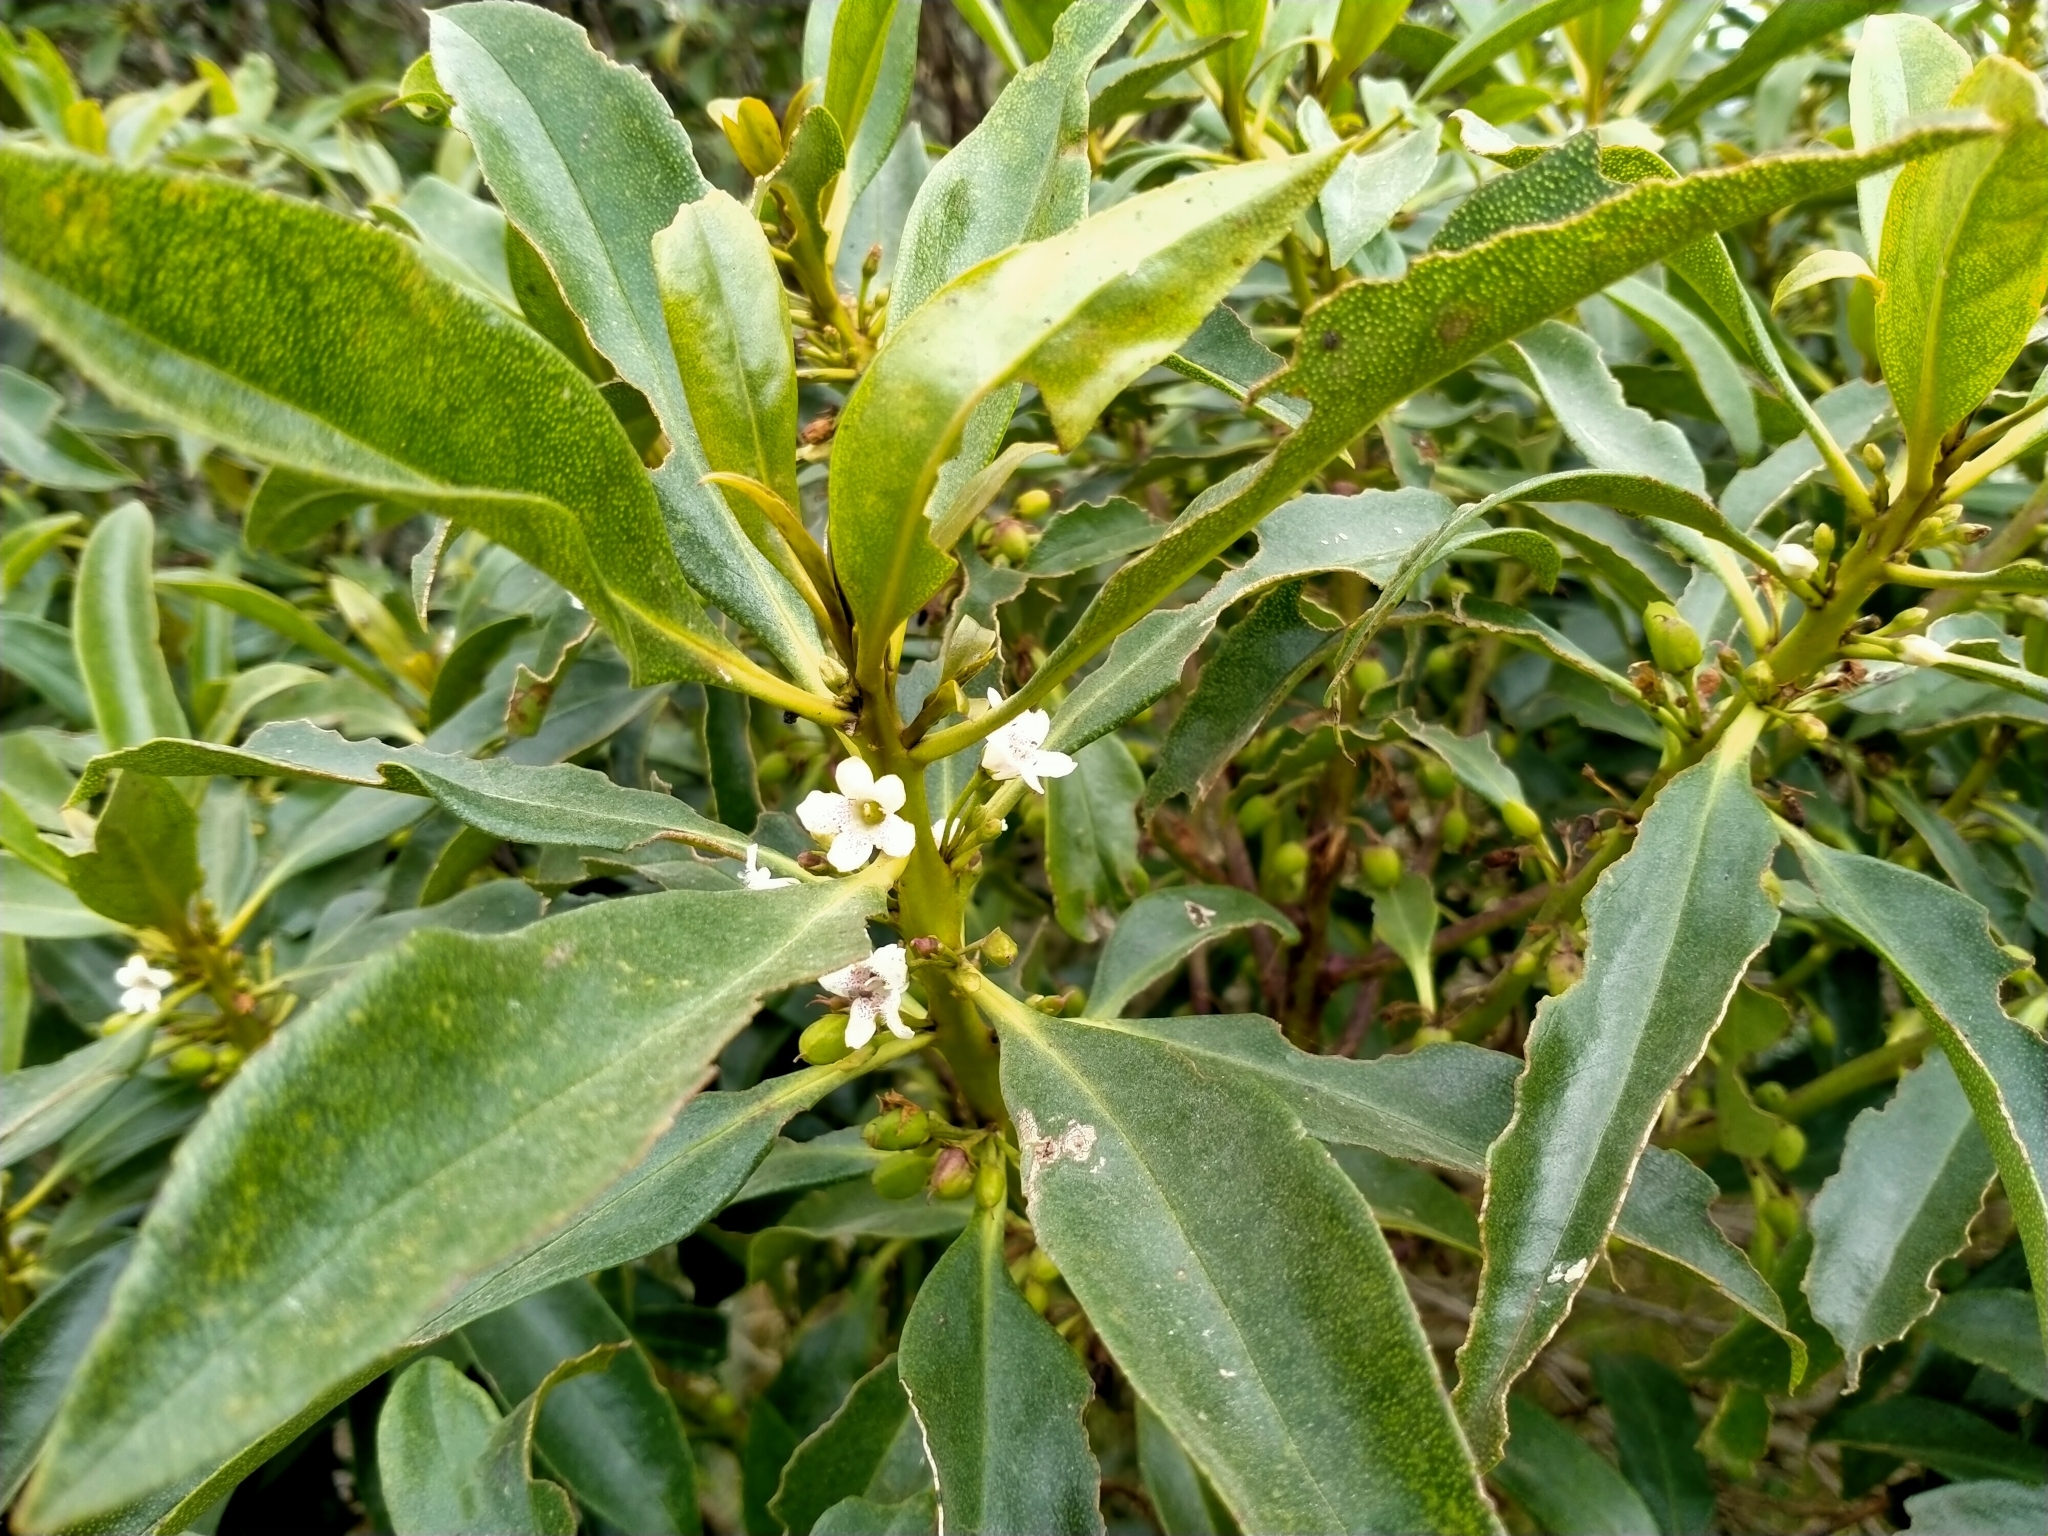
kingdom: Plantae
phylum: Tracheophyta
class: Magnoliopsida
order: Lamiales
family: Scrophulariaceae
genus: Myoporum
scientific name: Myoporum laetum
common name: Ngaio tree
